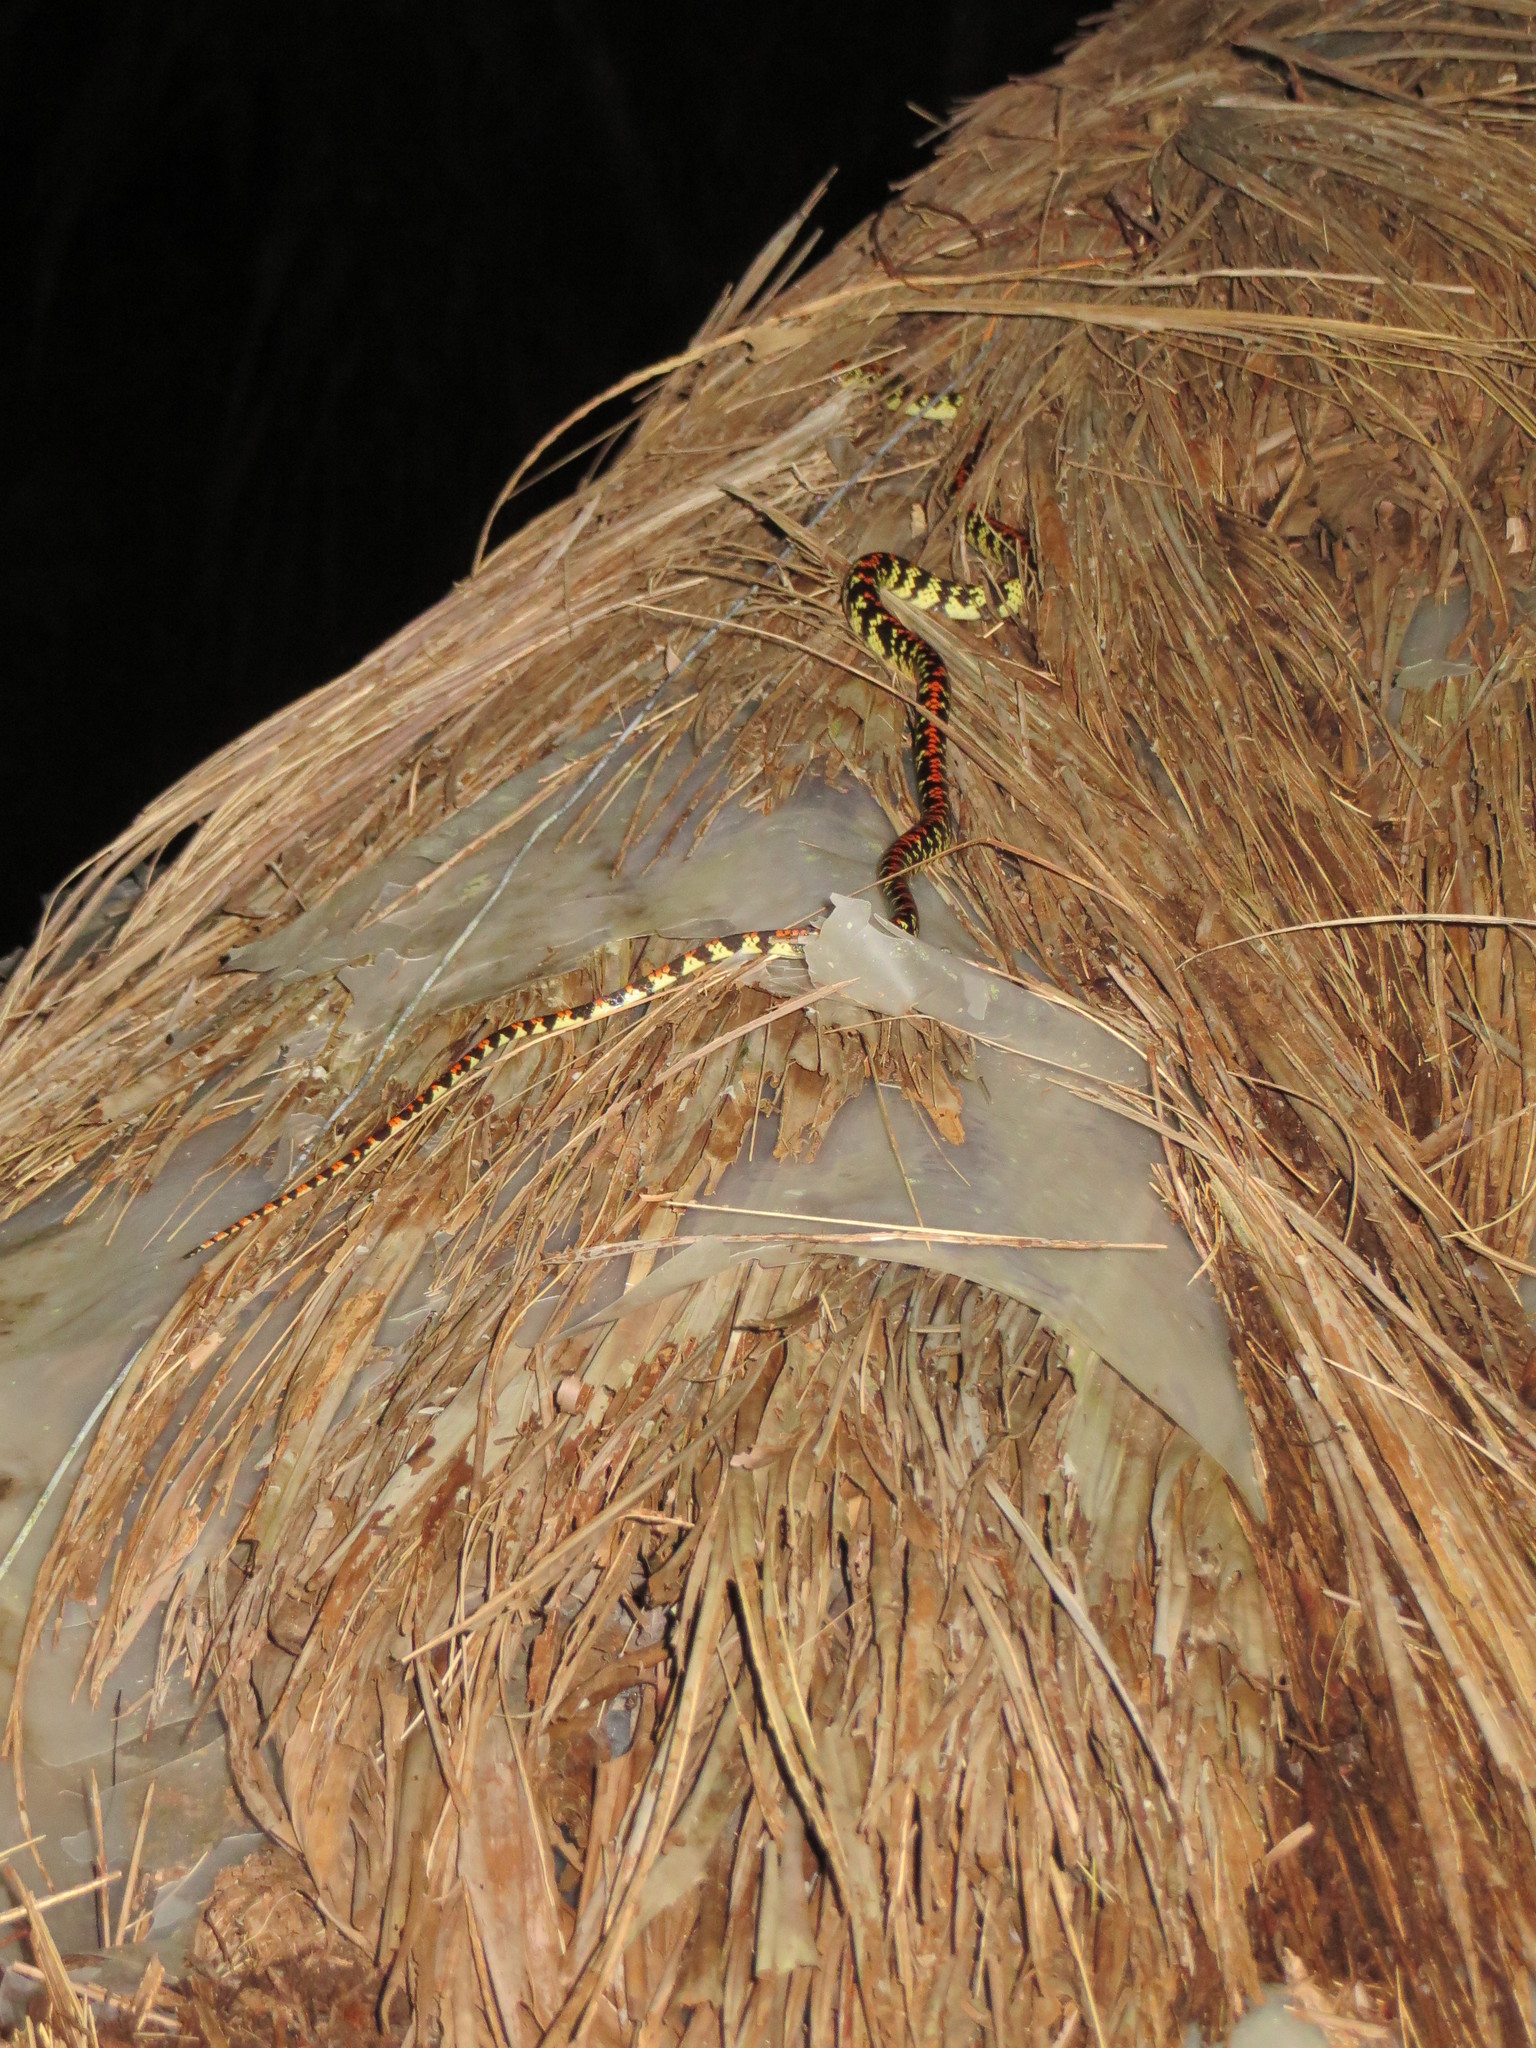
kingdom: Animalia
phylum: Chordata
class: Squamata
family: Colubridae
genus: Siphlophis
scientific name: Siphlophis cervinus
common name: Panama spotted night snake
